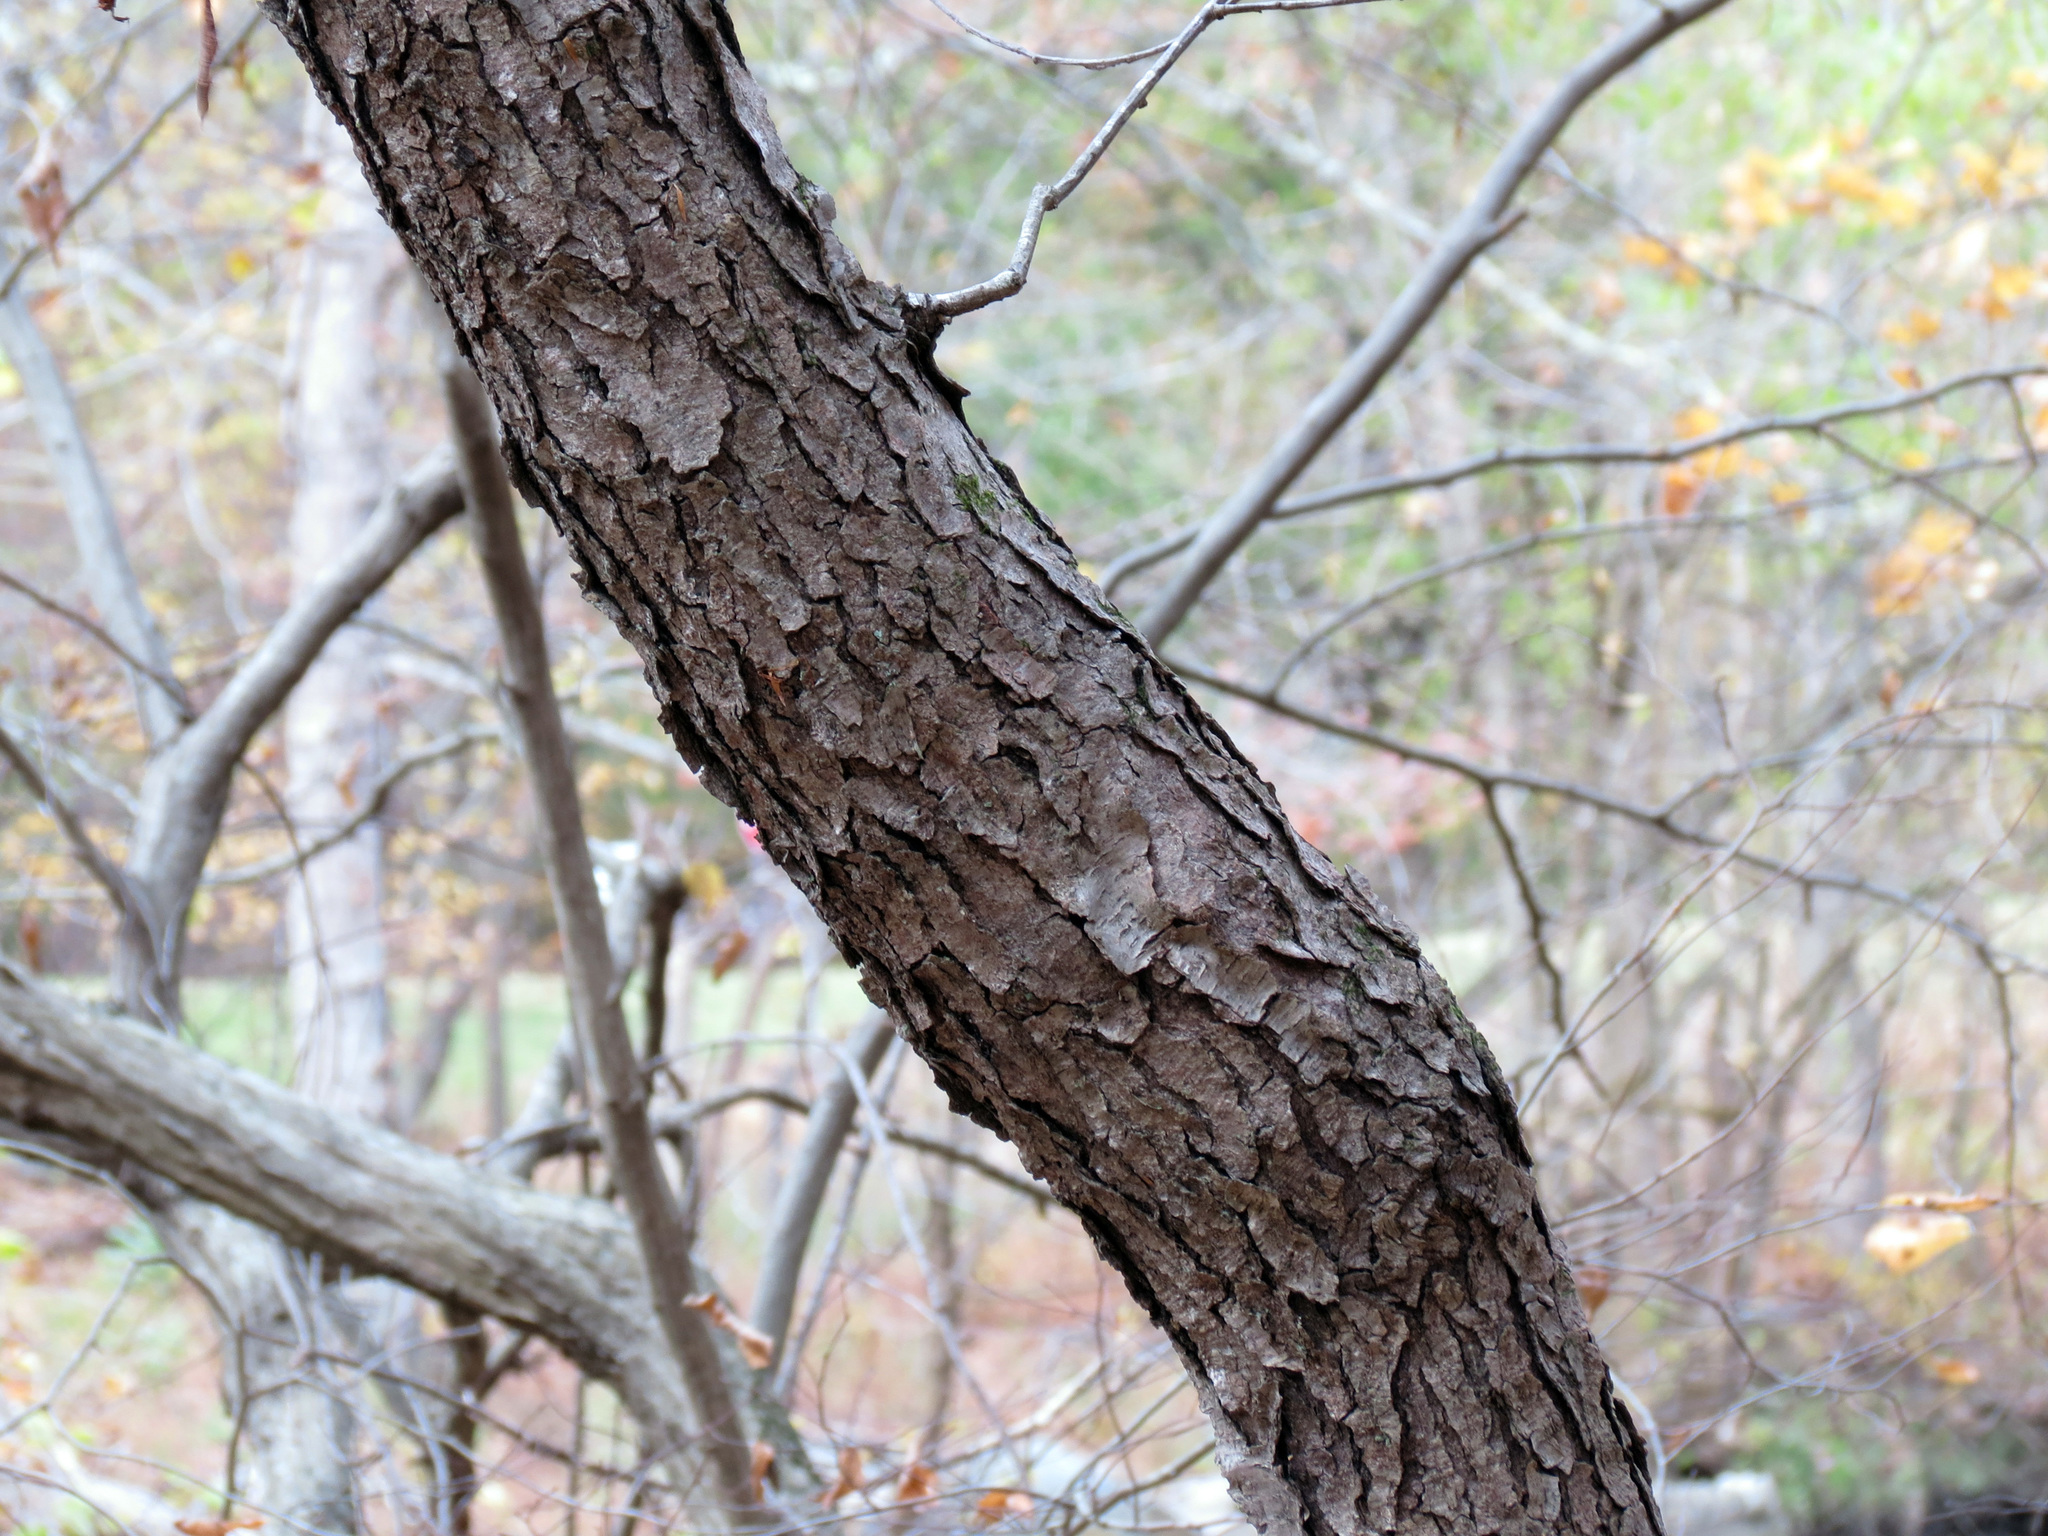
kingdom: Plantae
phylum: Tracheophyta
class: Magnoliopsida
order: Rosales
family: Rosaceae
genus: Prunus
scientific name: Prunus serotina
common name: Black cherry
